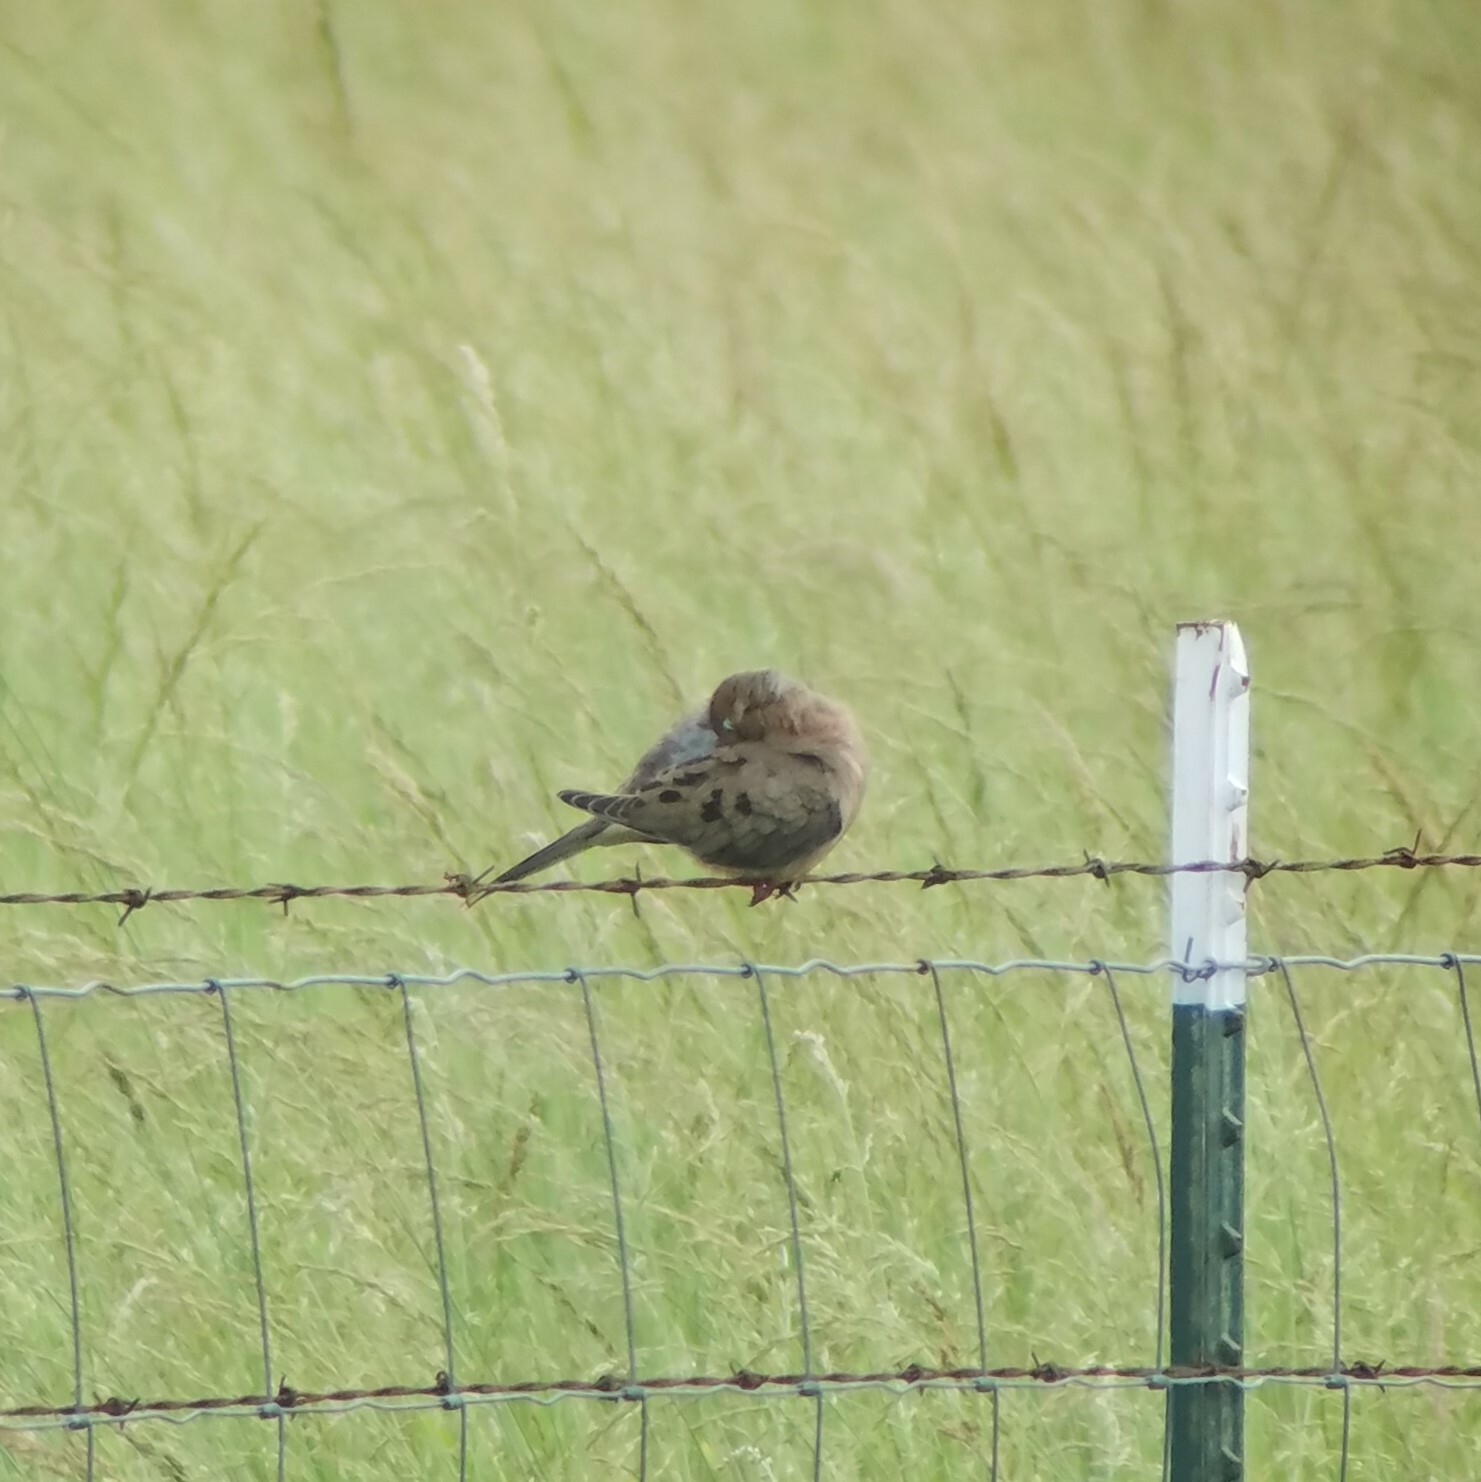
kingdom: Animalia
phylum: Chordata
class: Aves
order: Columbiformes
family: Columbidae
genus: Zenaida
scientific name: Zenaida macroura
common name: Mourning dove
